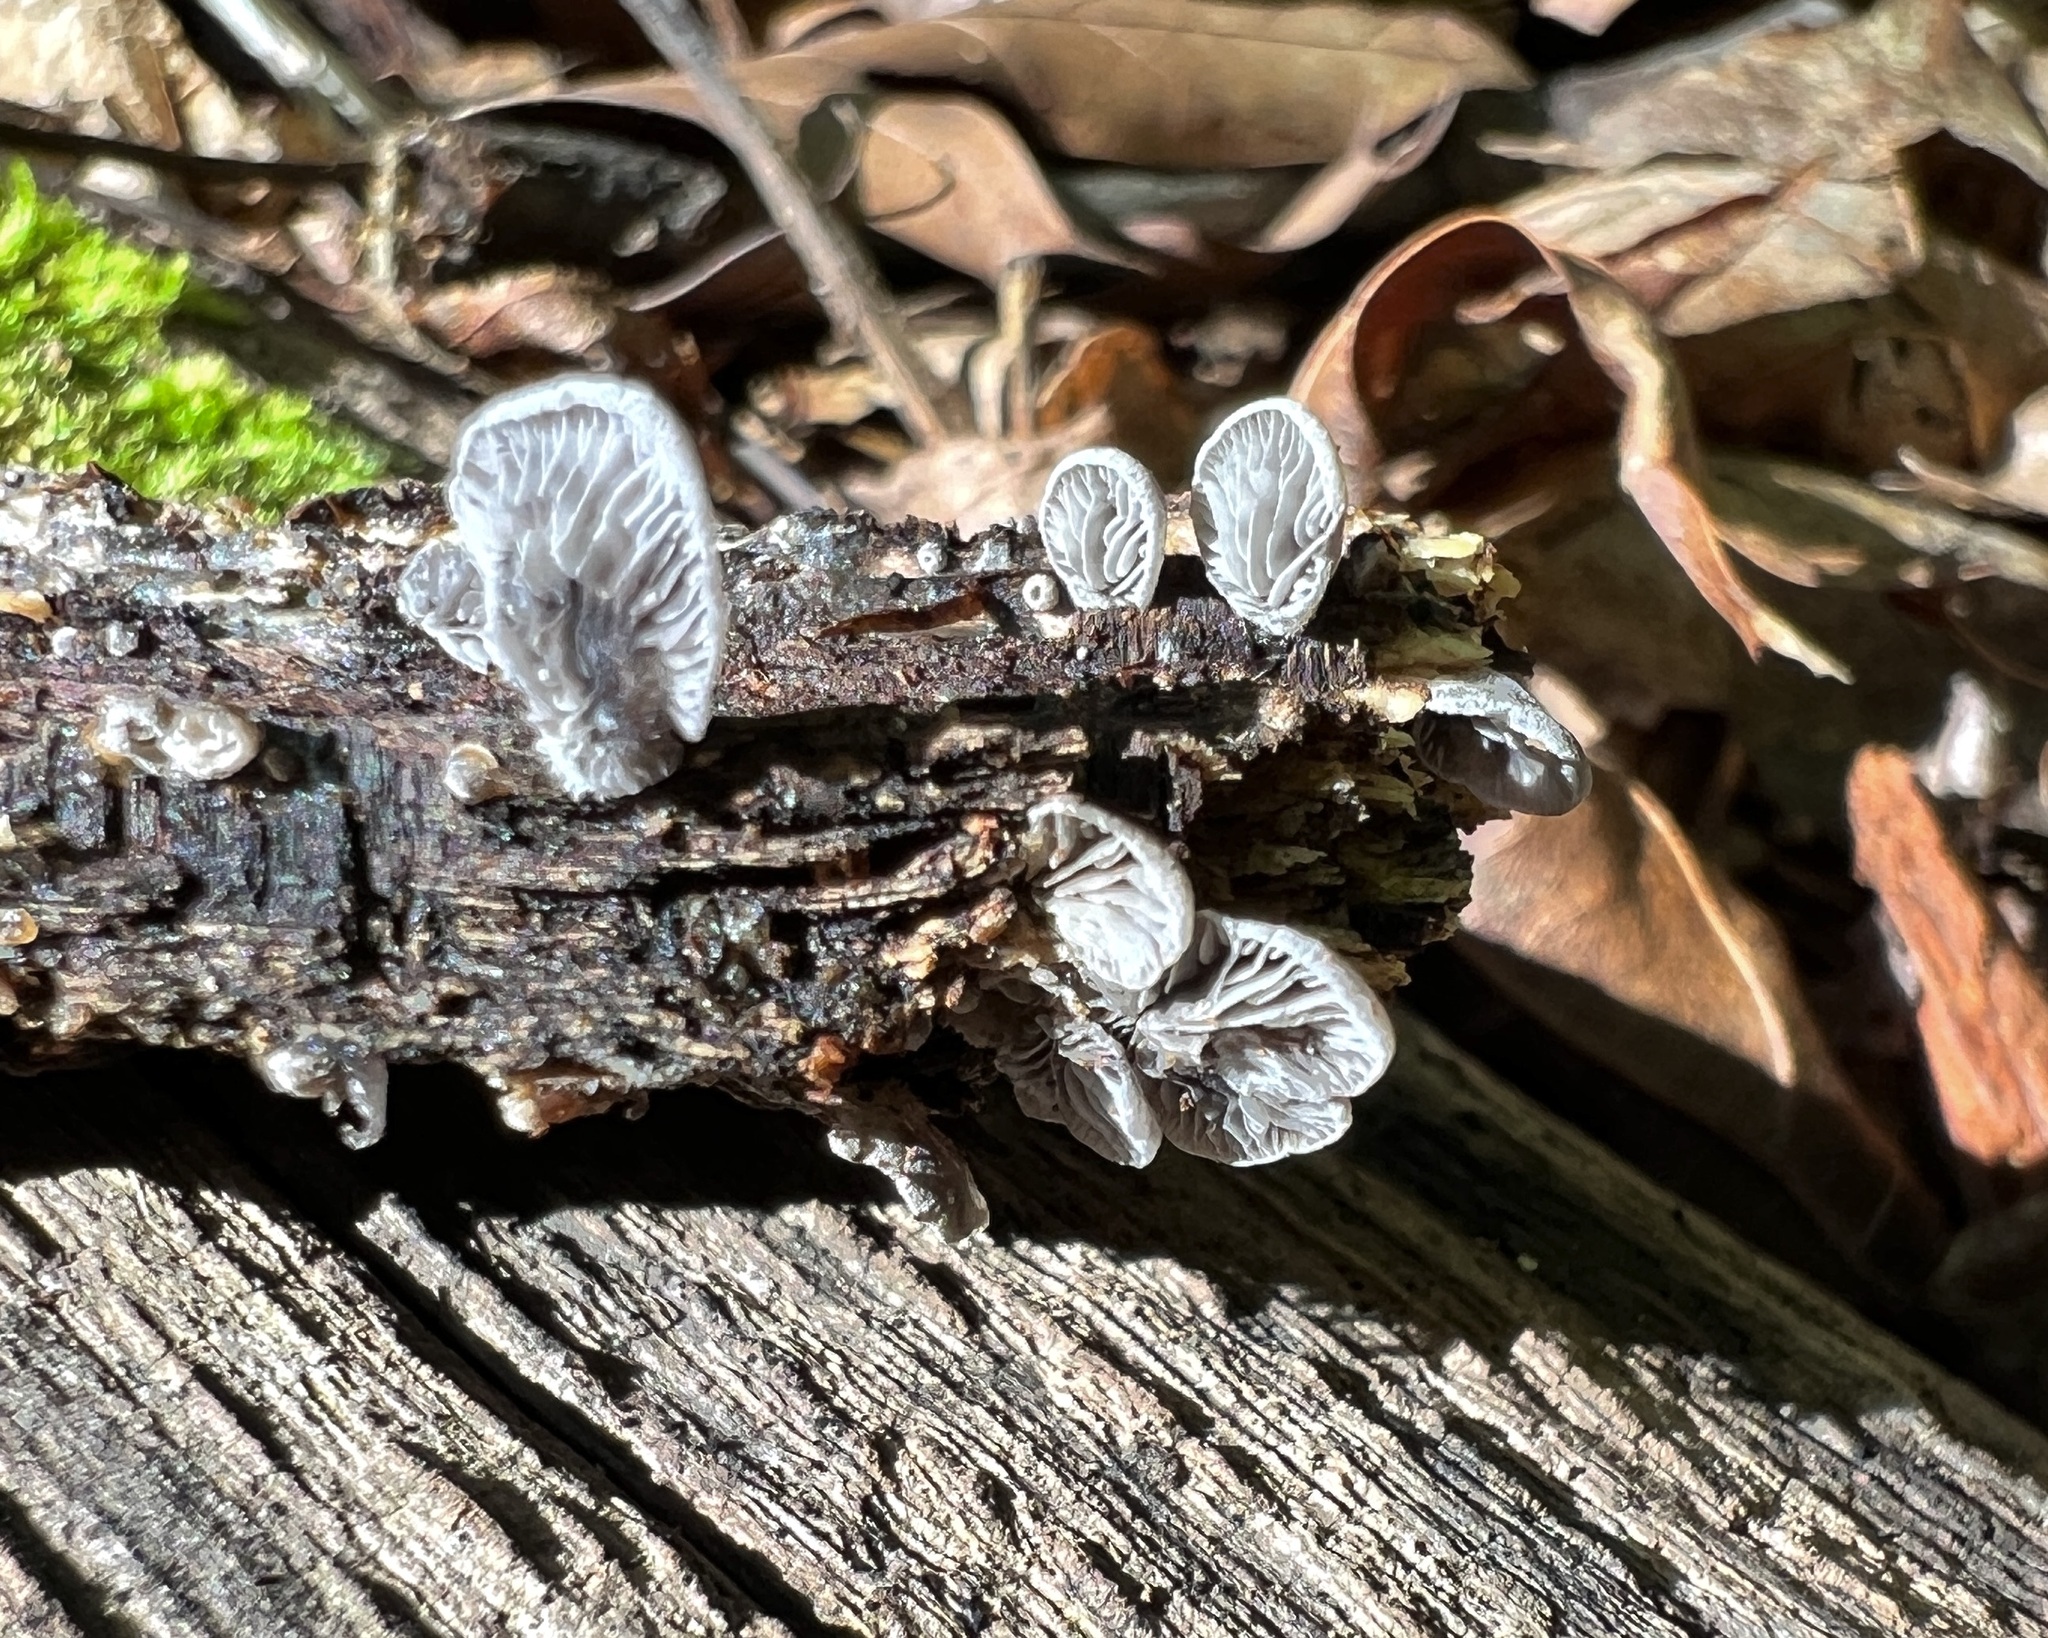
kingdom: Fungi
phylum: Basidiomycota
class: Agaricomycetes
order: Agaricales
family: Pleurotaceae
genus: Resupinatus
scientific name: Resupinatus applicatus
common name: Smoked oysterling
